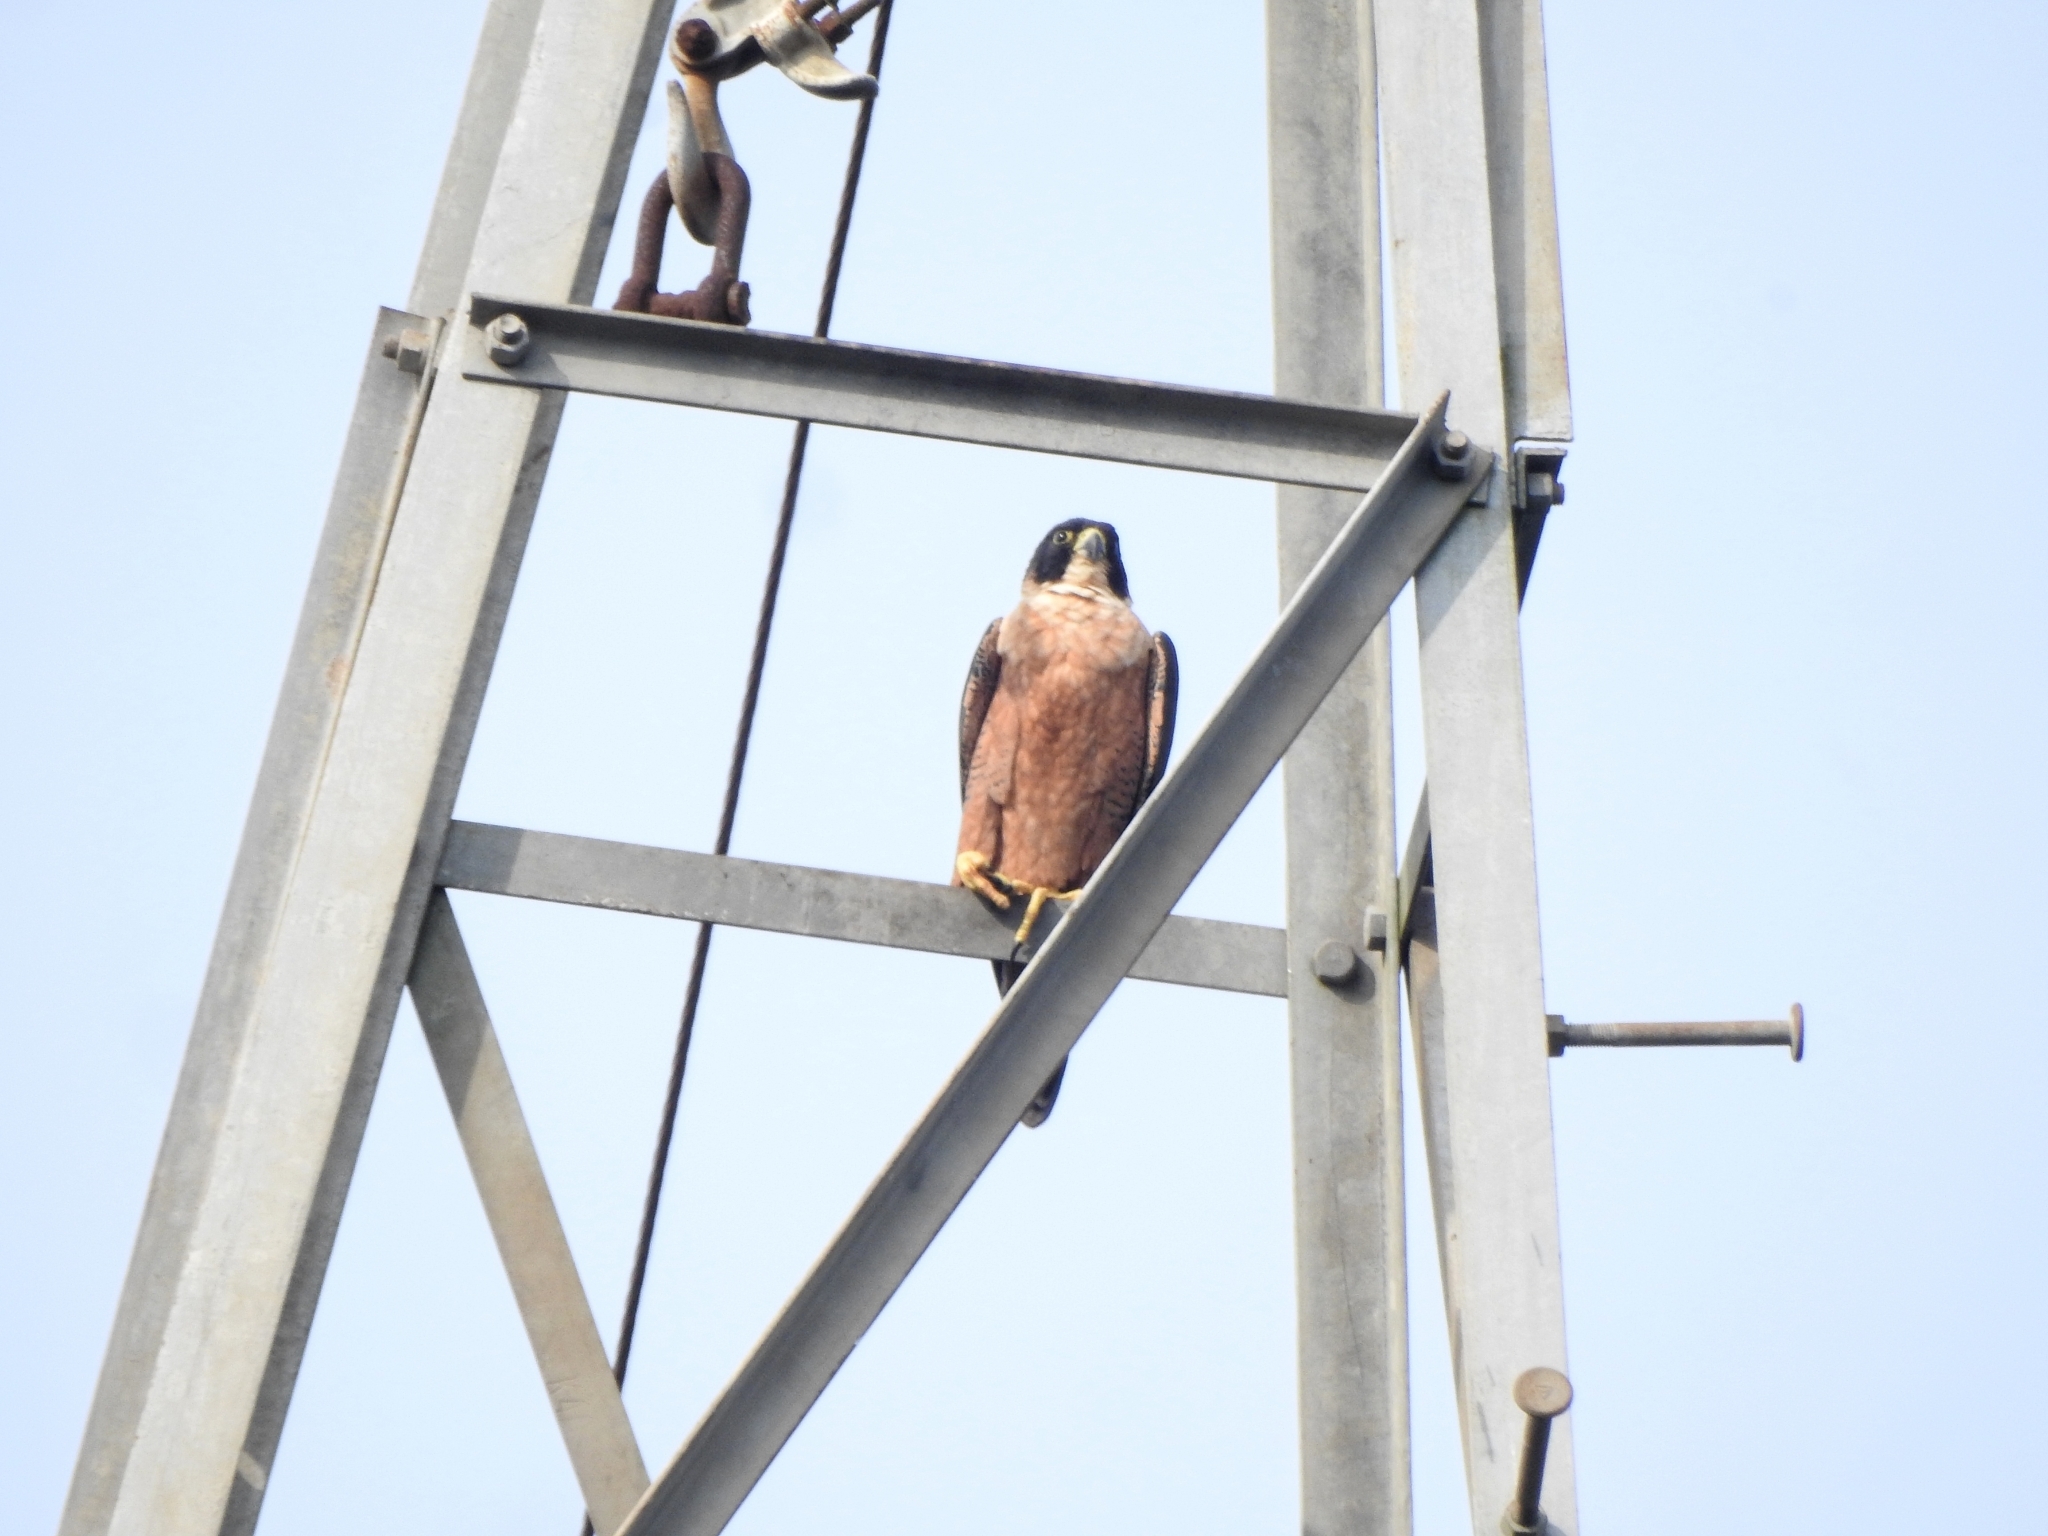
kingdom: Animalia
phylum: Chordata
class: Aves
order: Falconiformes
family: Falconidae
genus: Falco
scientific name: Falco peregrinus
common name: Peregrine falcon
